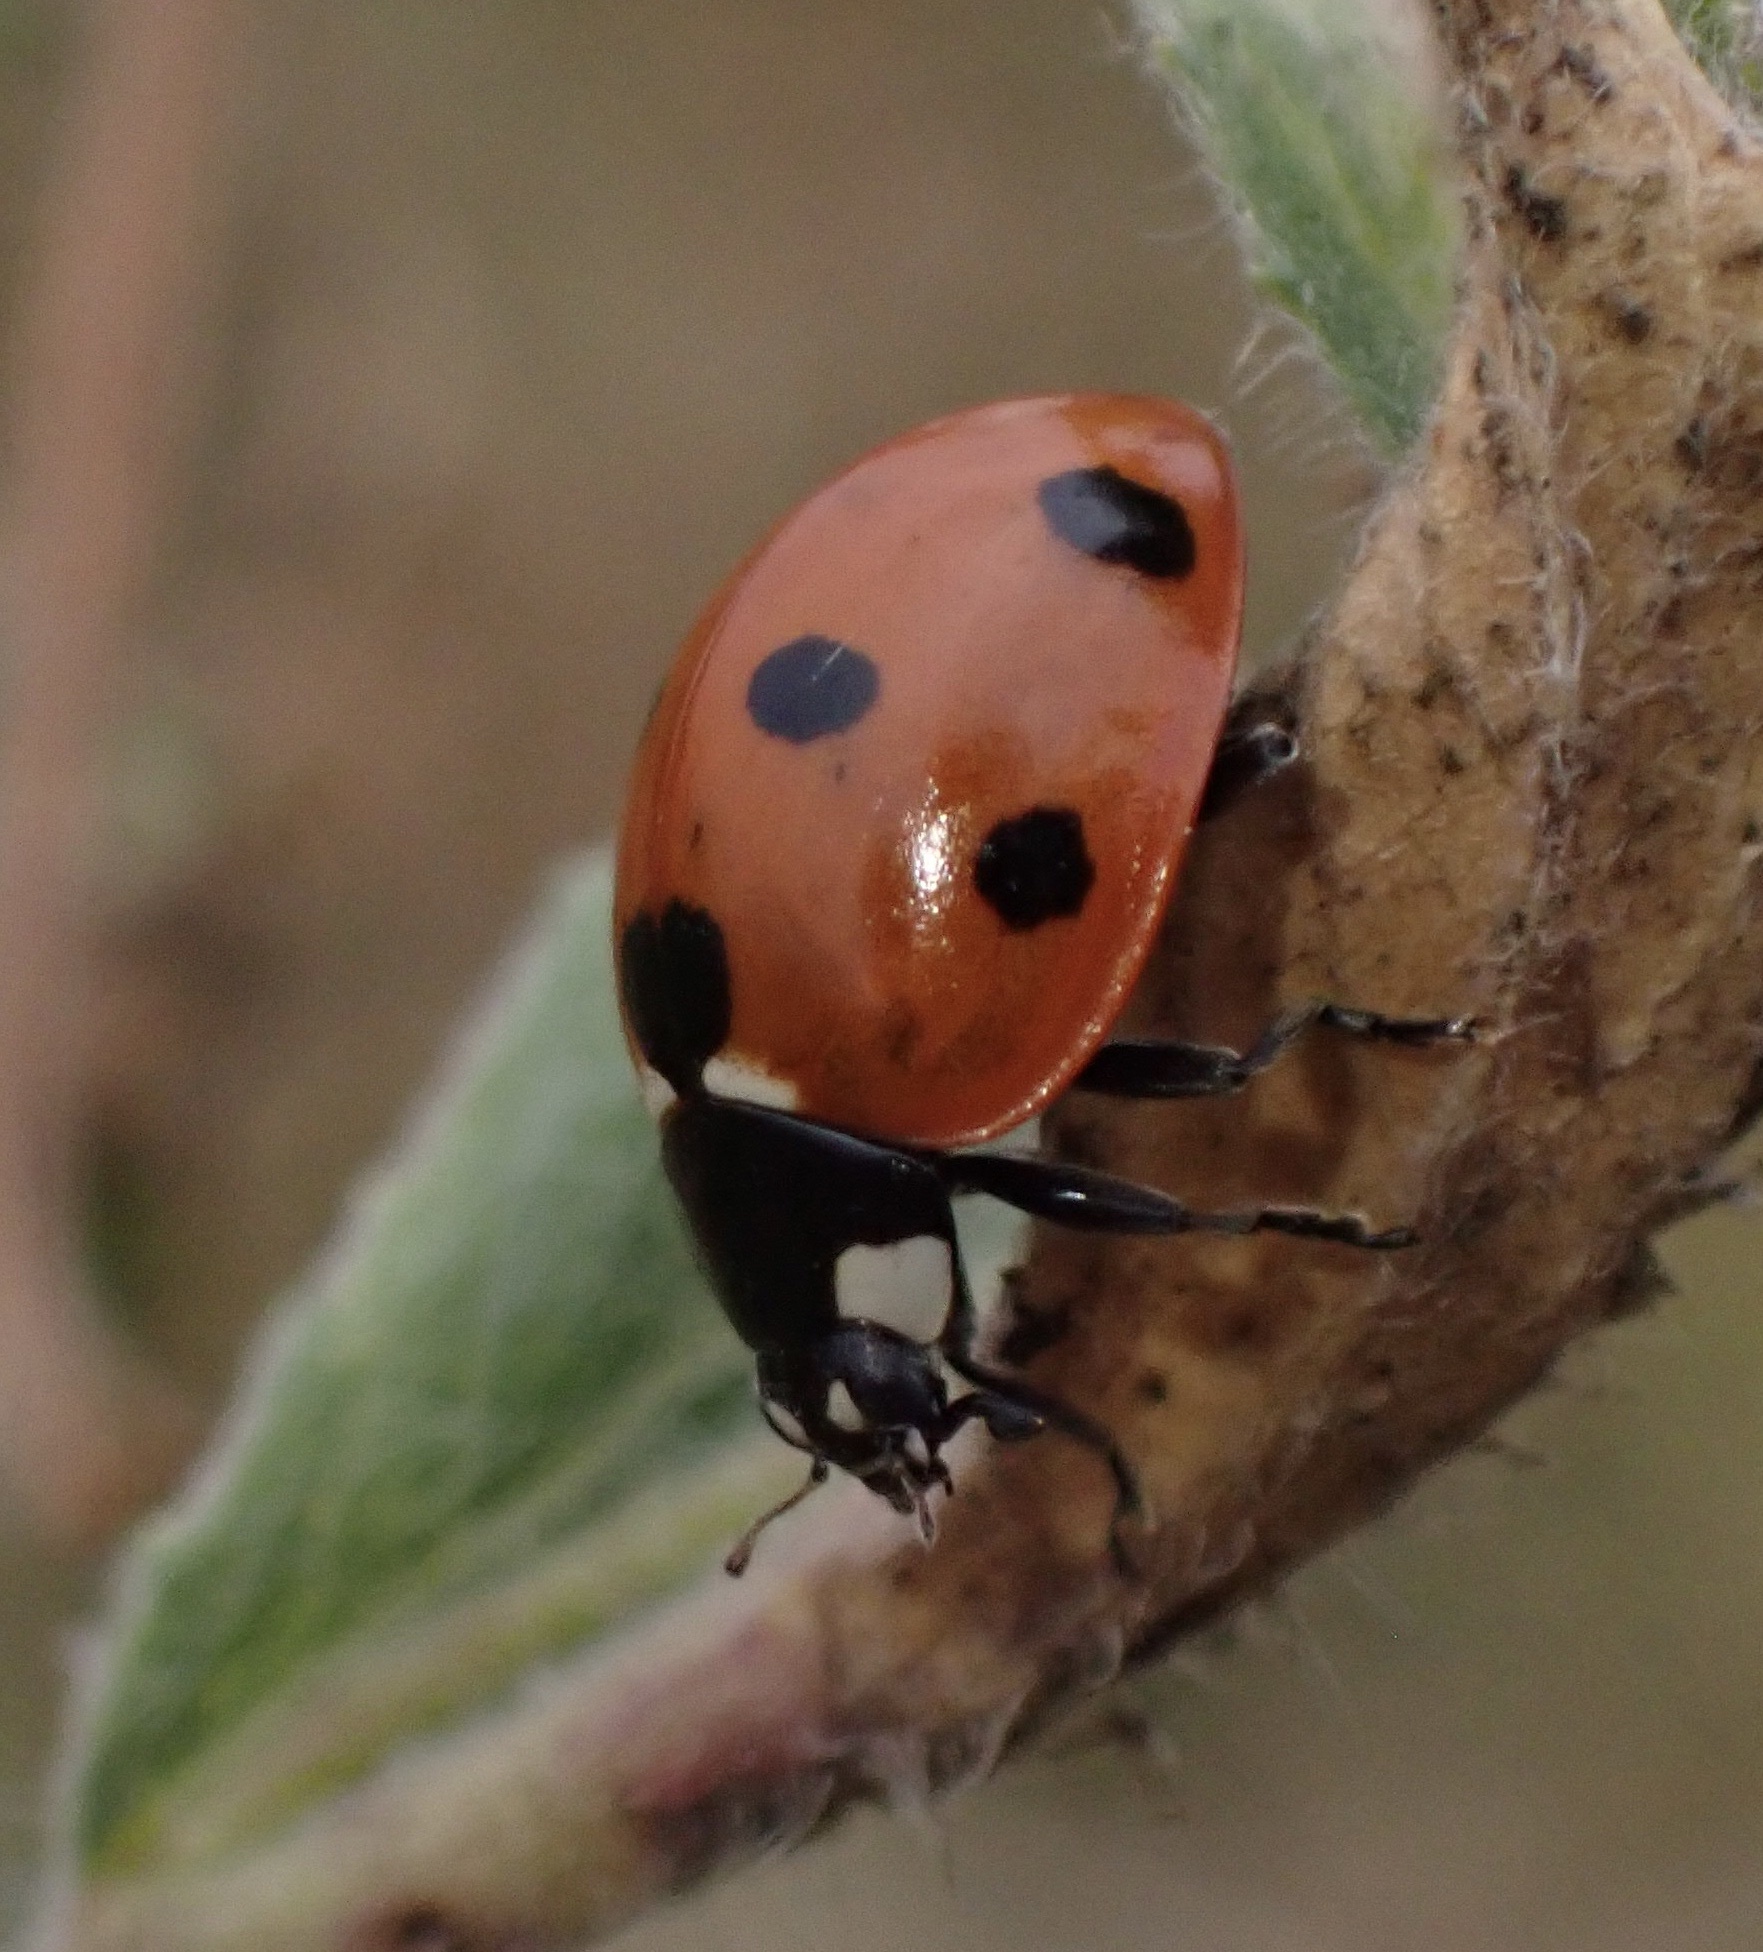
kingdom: Animalia
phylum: Arthropoda
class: Insecta
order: Coleoptera
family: Coccinellidae
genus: Coccinella
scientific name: Coccinella septempunctata
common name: Sevenspotted lady beetle
